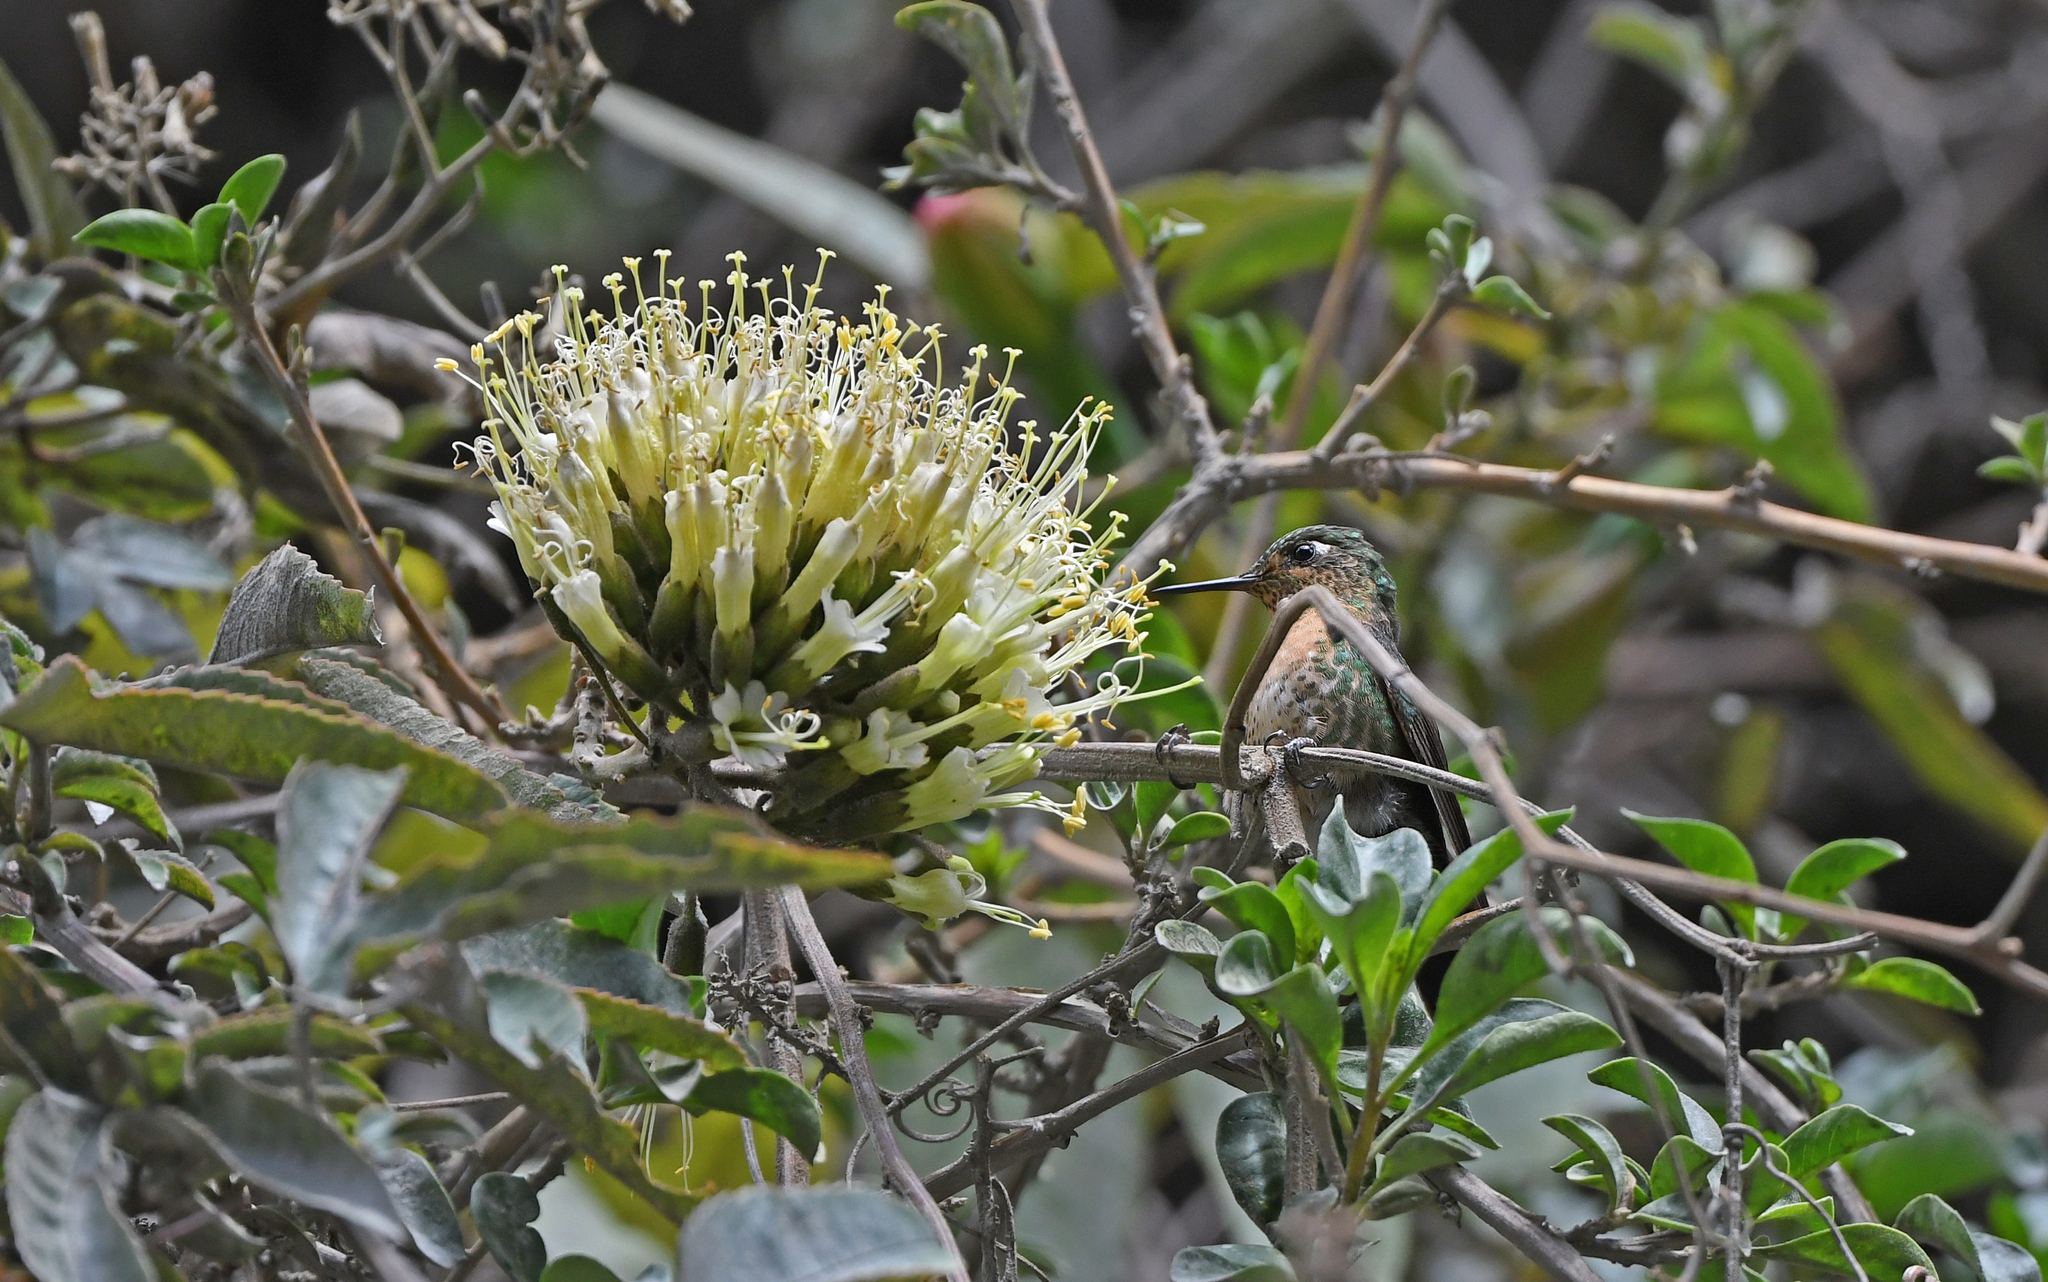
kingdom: Animalia
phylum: Chordata
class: Aves
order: Apodiformes
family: Trochilidae
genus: Metallura
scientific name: Metallura tyrianthina
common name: Tyrian metaltail
